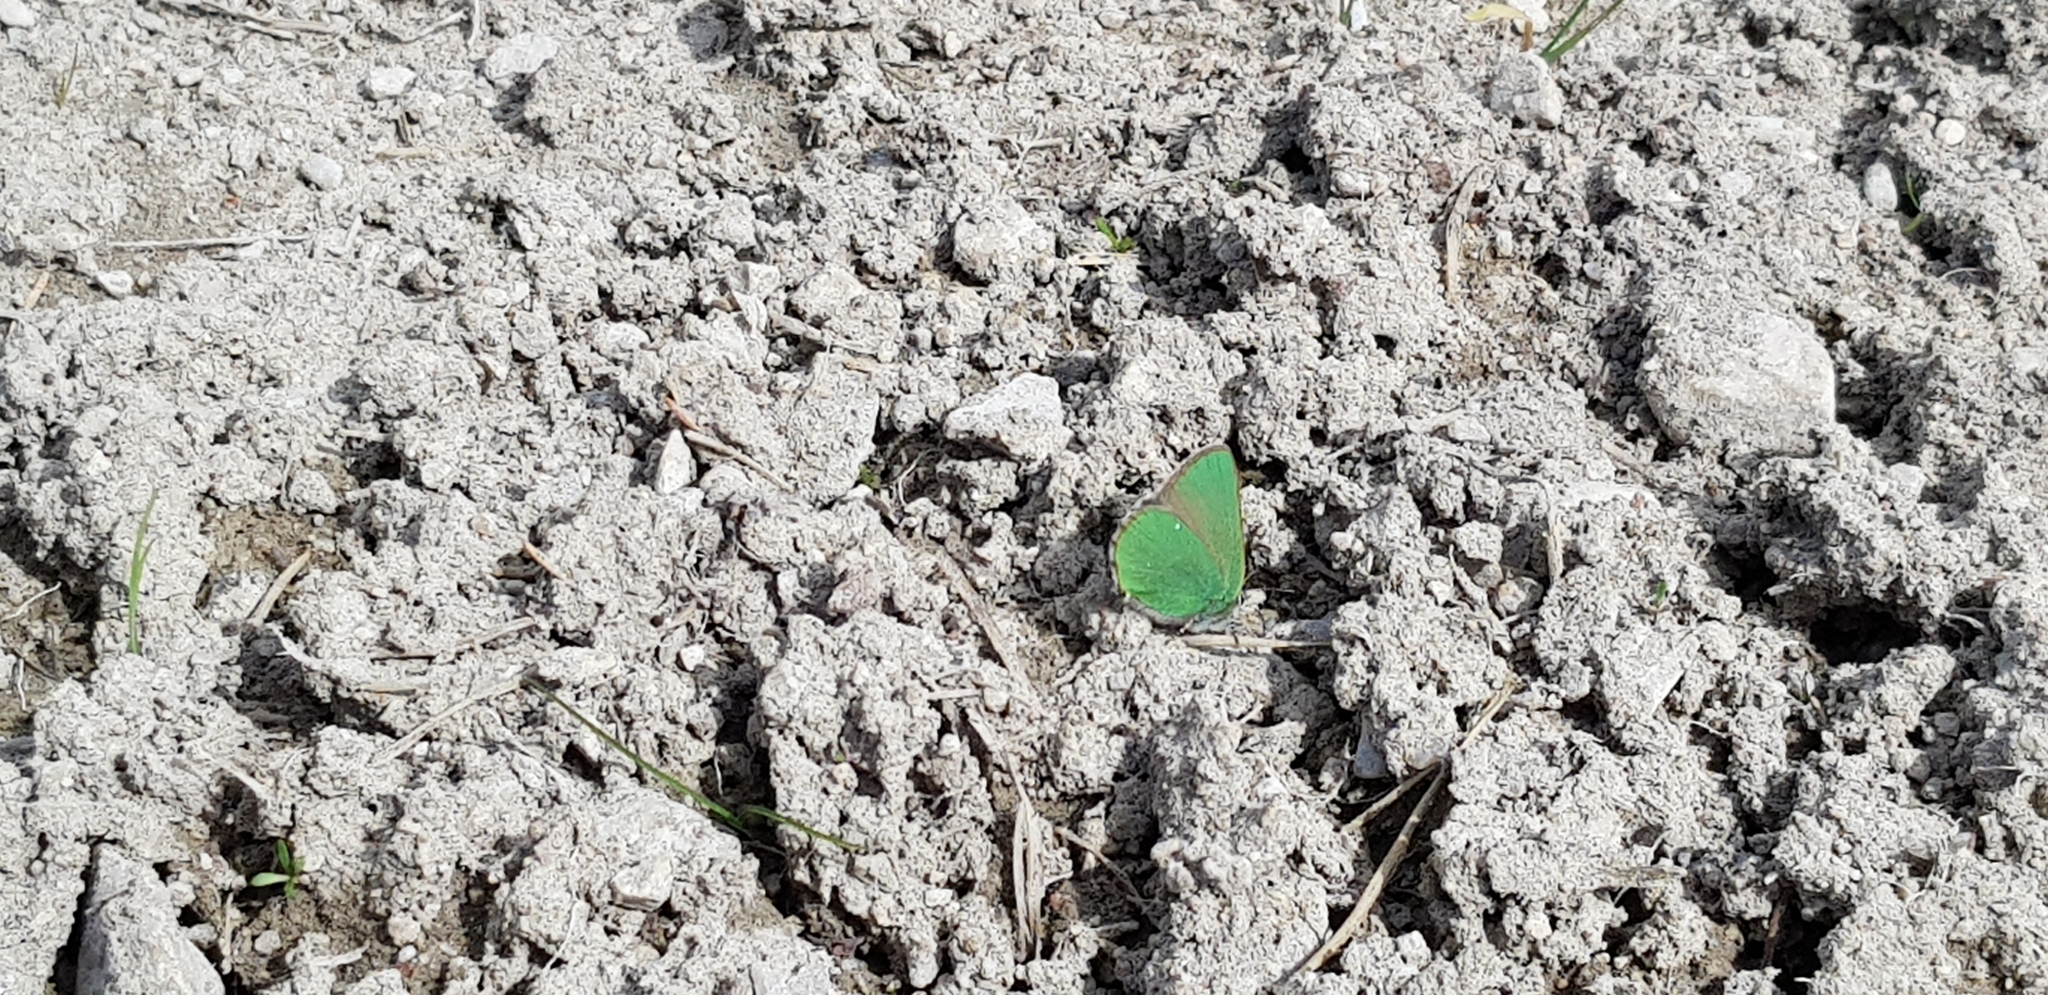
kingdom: Animalia
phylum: Arthropoda
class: Insecta
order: Lepidoptera
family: Lycaenidae
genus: Callophrys
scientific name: Callophrys rubi
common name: Green hairstreak
